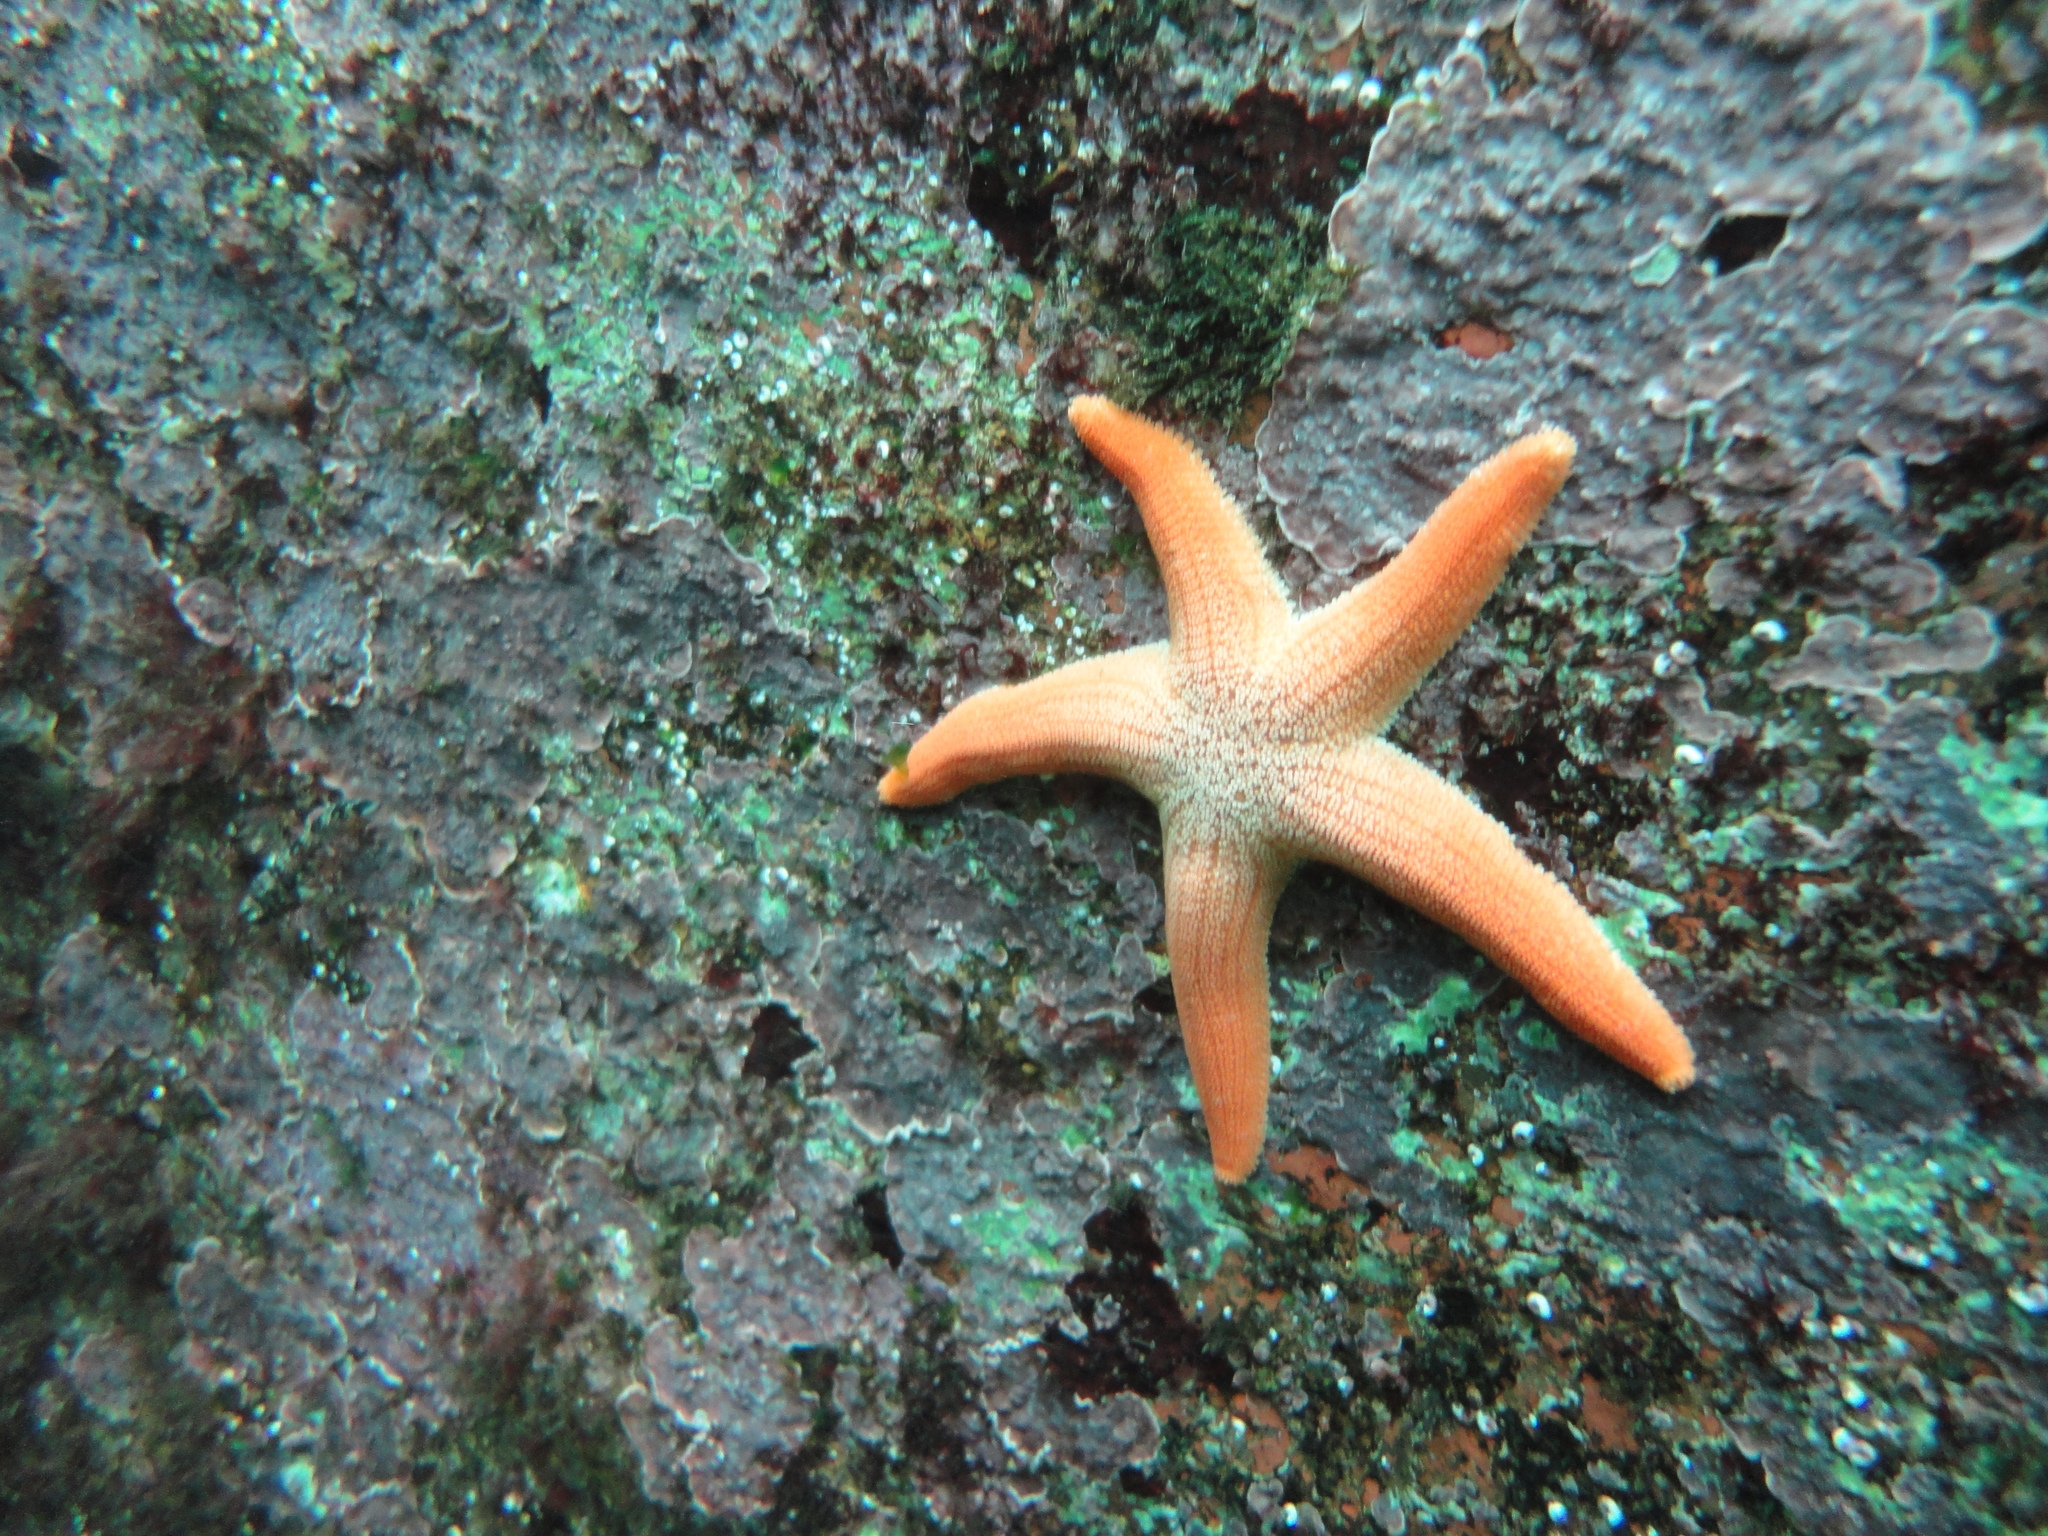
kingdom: Animalia
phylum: Echinodermata
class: Asteroidea
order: Forcipulatida
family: Stichasteridae
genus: Stichaster
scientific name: Stichaster striatus
